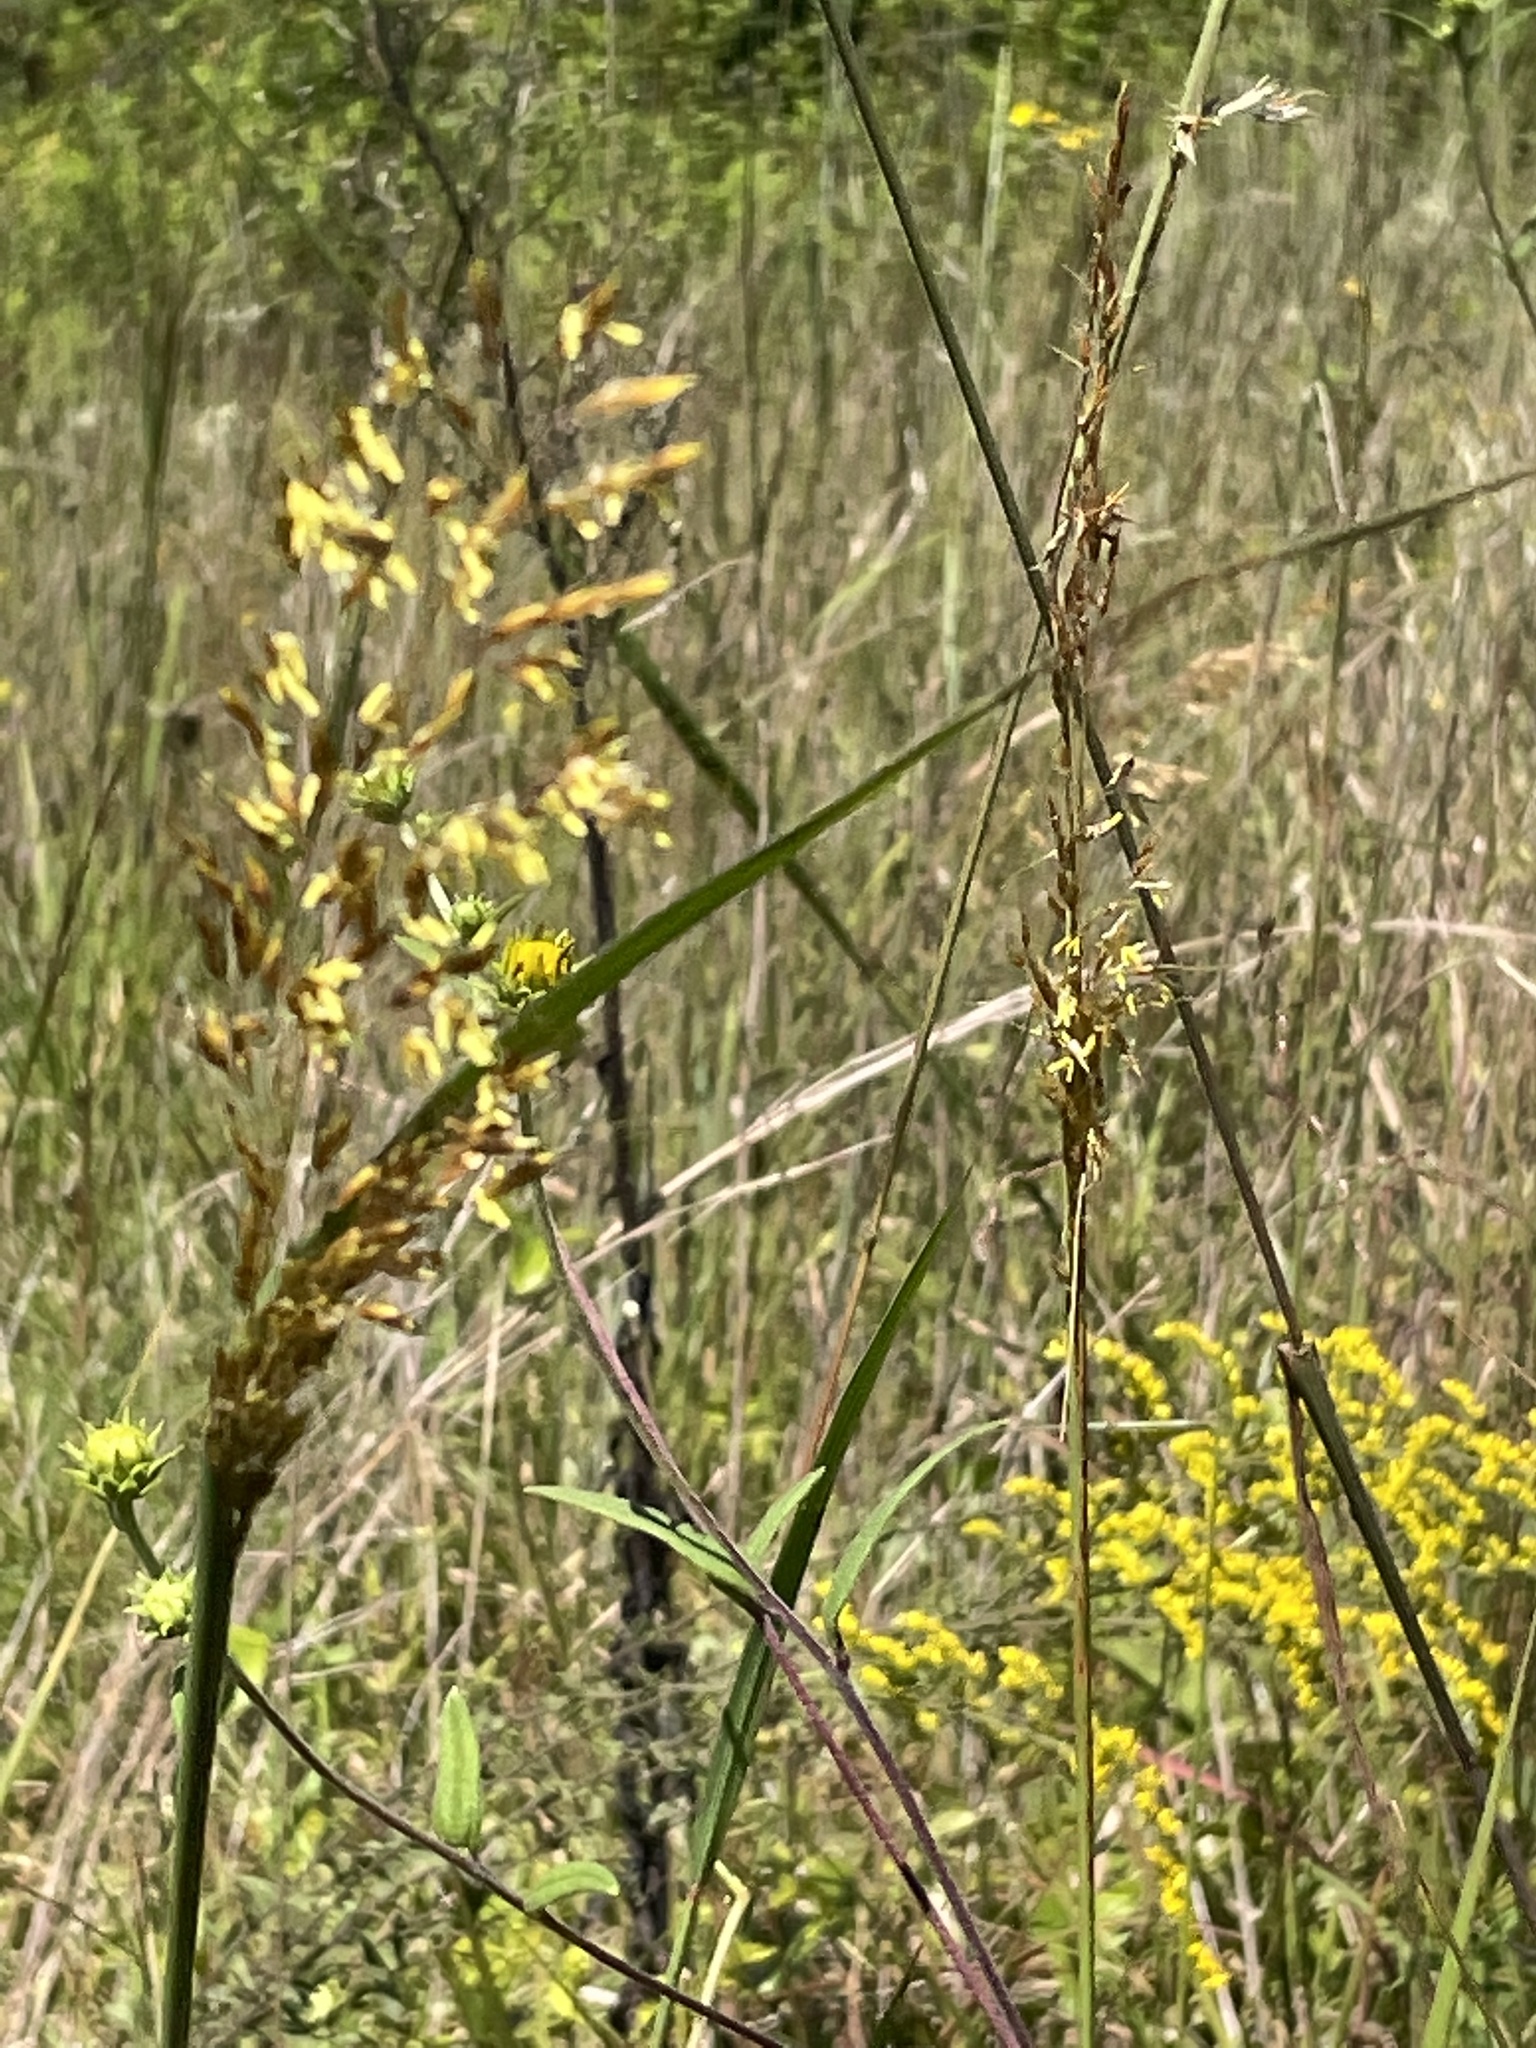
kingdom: Plantae
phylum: Tracheophyta
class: Liliopsida
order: Poales
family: Poaceae
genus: Sorghastrum
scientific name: Sorghastrum nutans
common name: Indian grass
